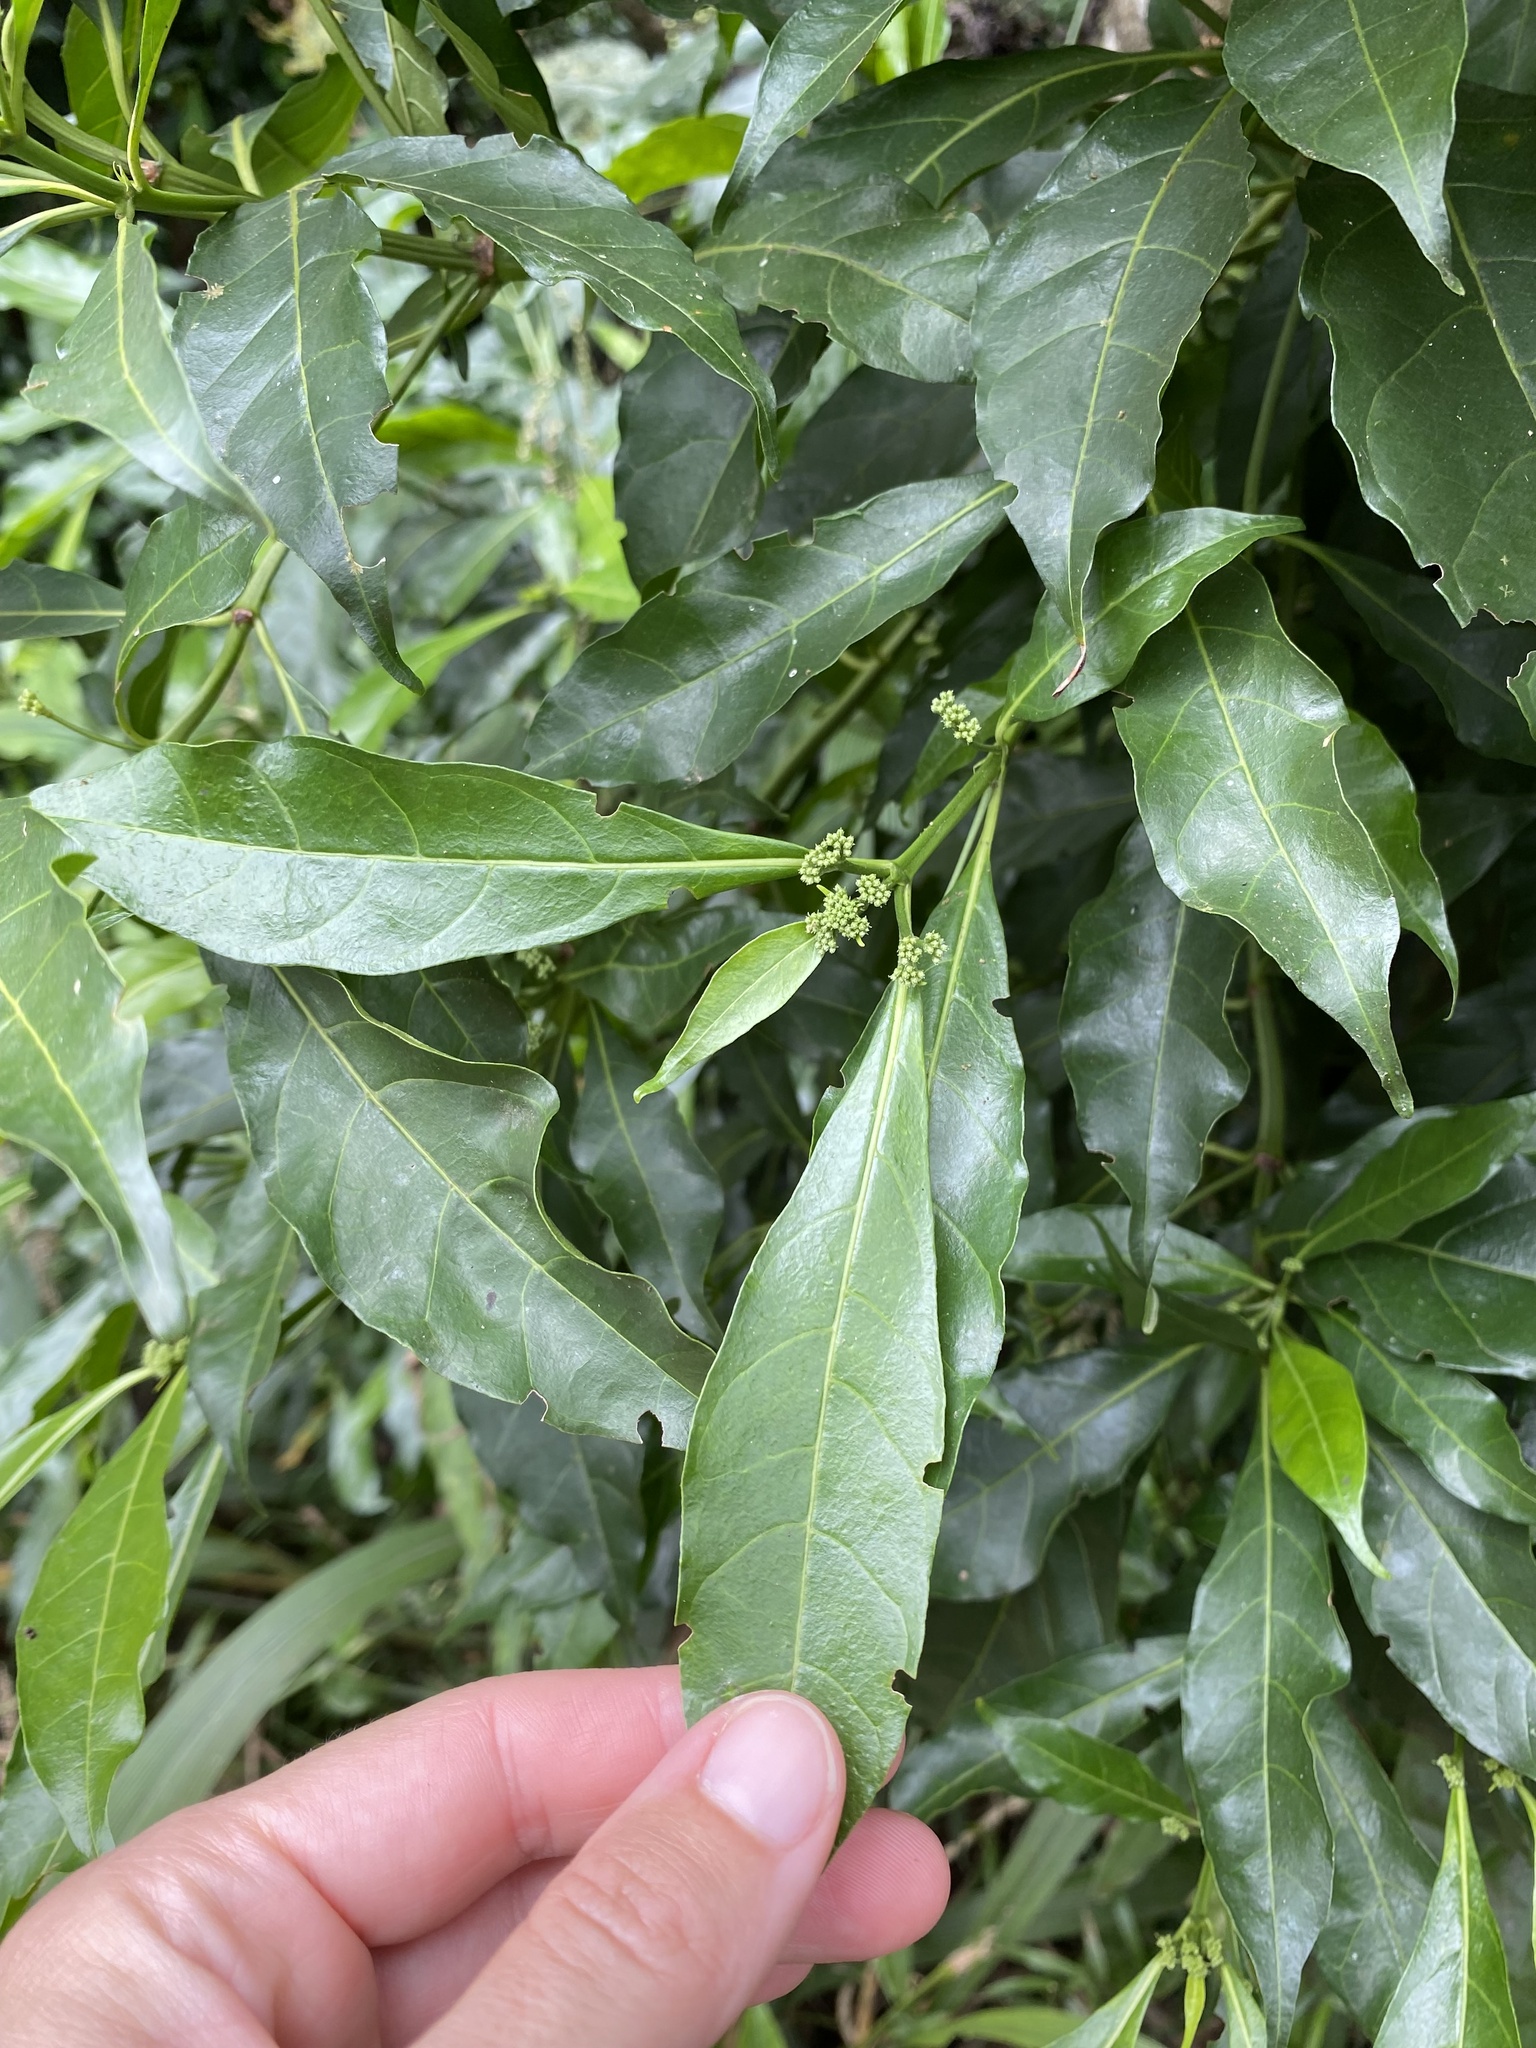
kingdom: Plantae
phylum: Tracheophyta
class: Magnoliopsida
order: Gentianales
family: Rubiaceae
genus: Tarenna
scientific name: Tarenna pavettoides
